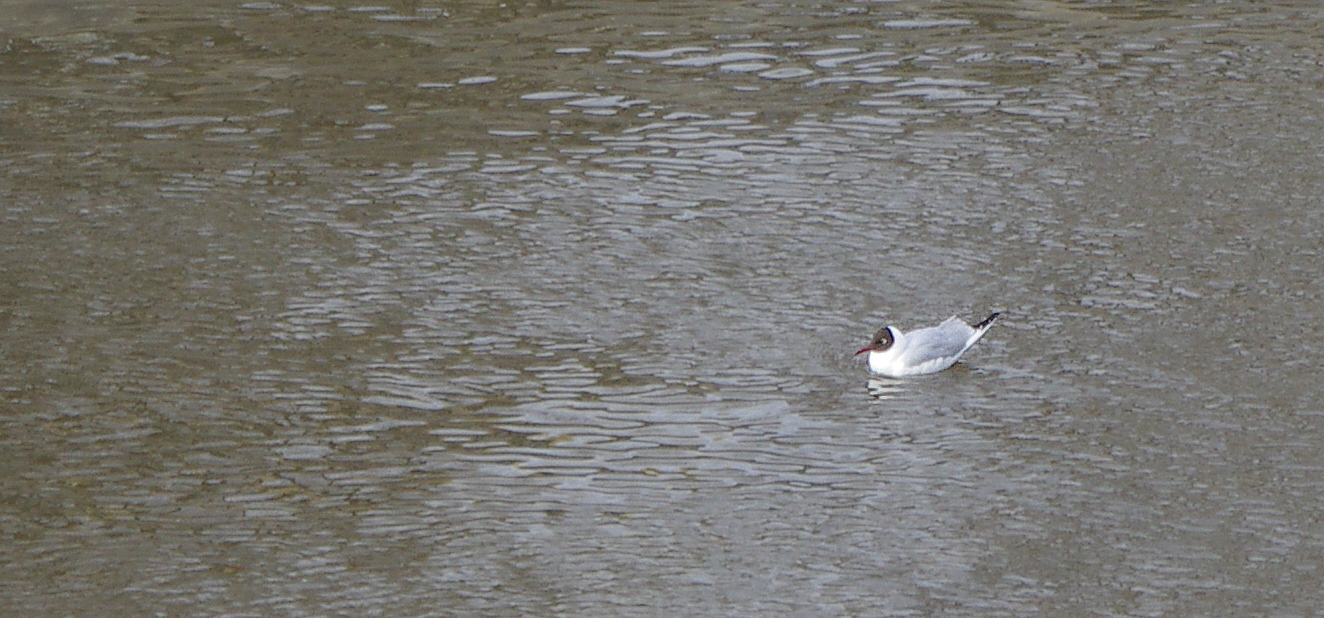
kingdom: Animalia
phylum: Chordata
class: Aves
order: Charadriiformes
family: Laridae
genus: Chroicocephalus
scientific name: Chroicocephalus ridibundus
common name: Black-headed gull
